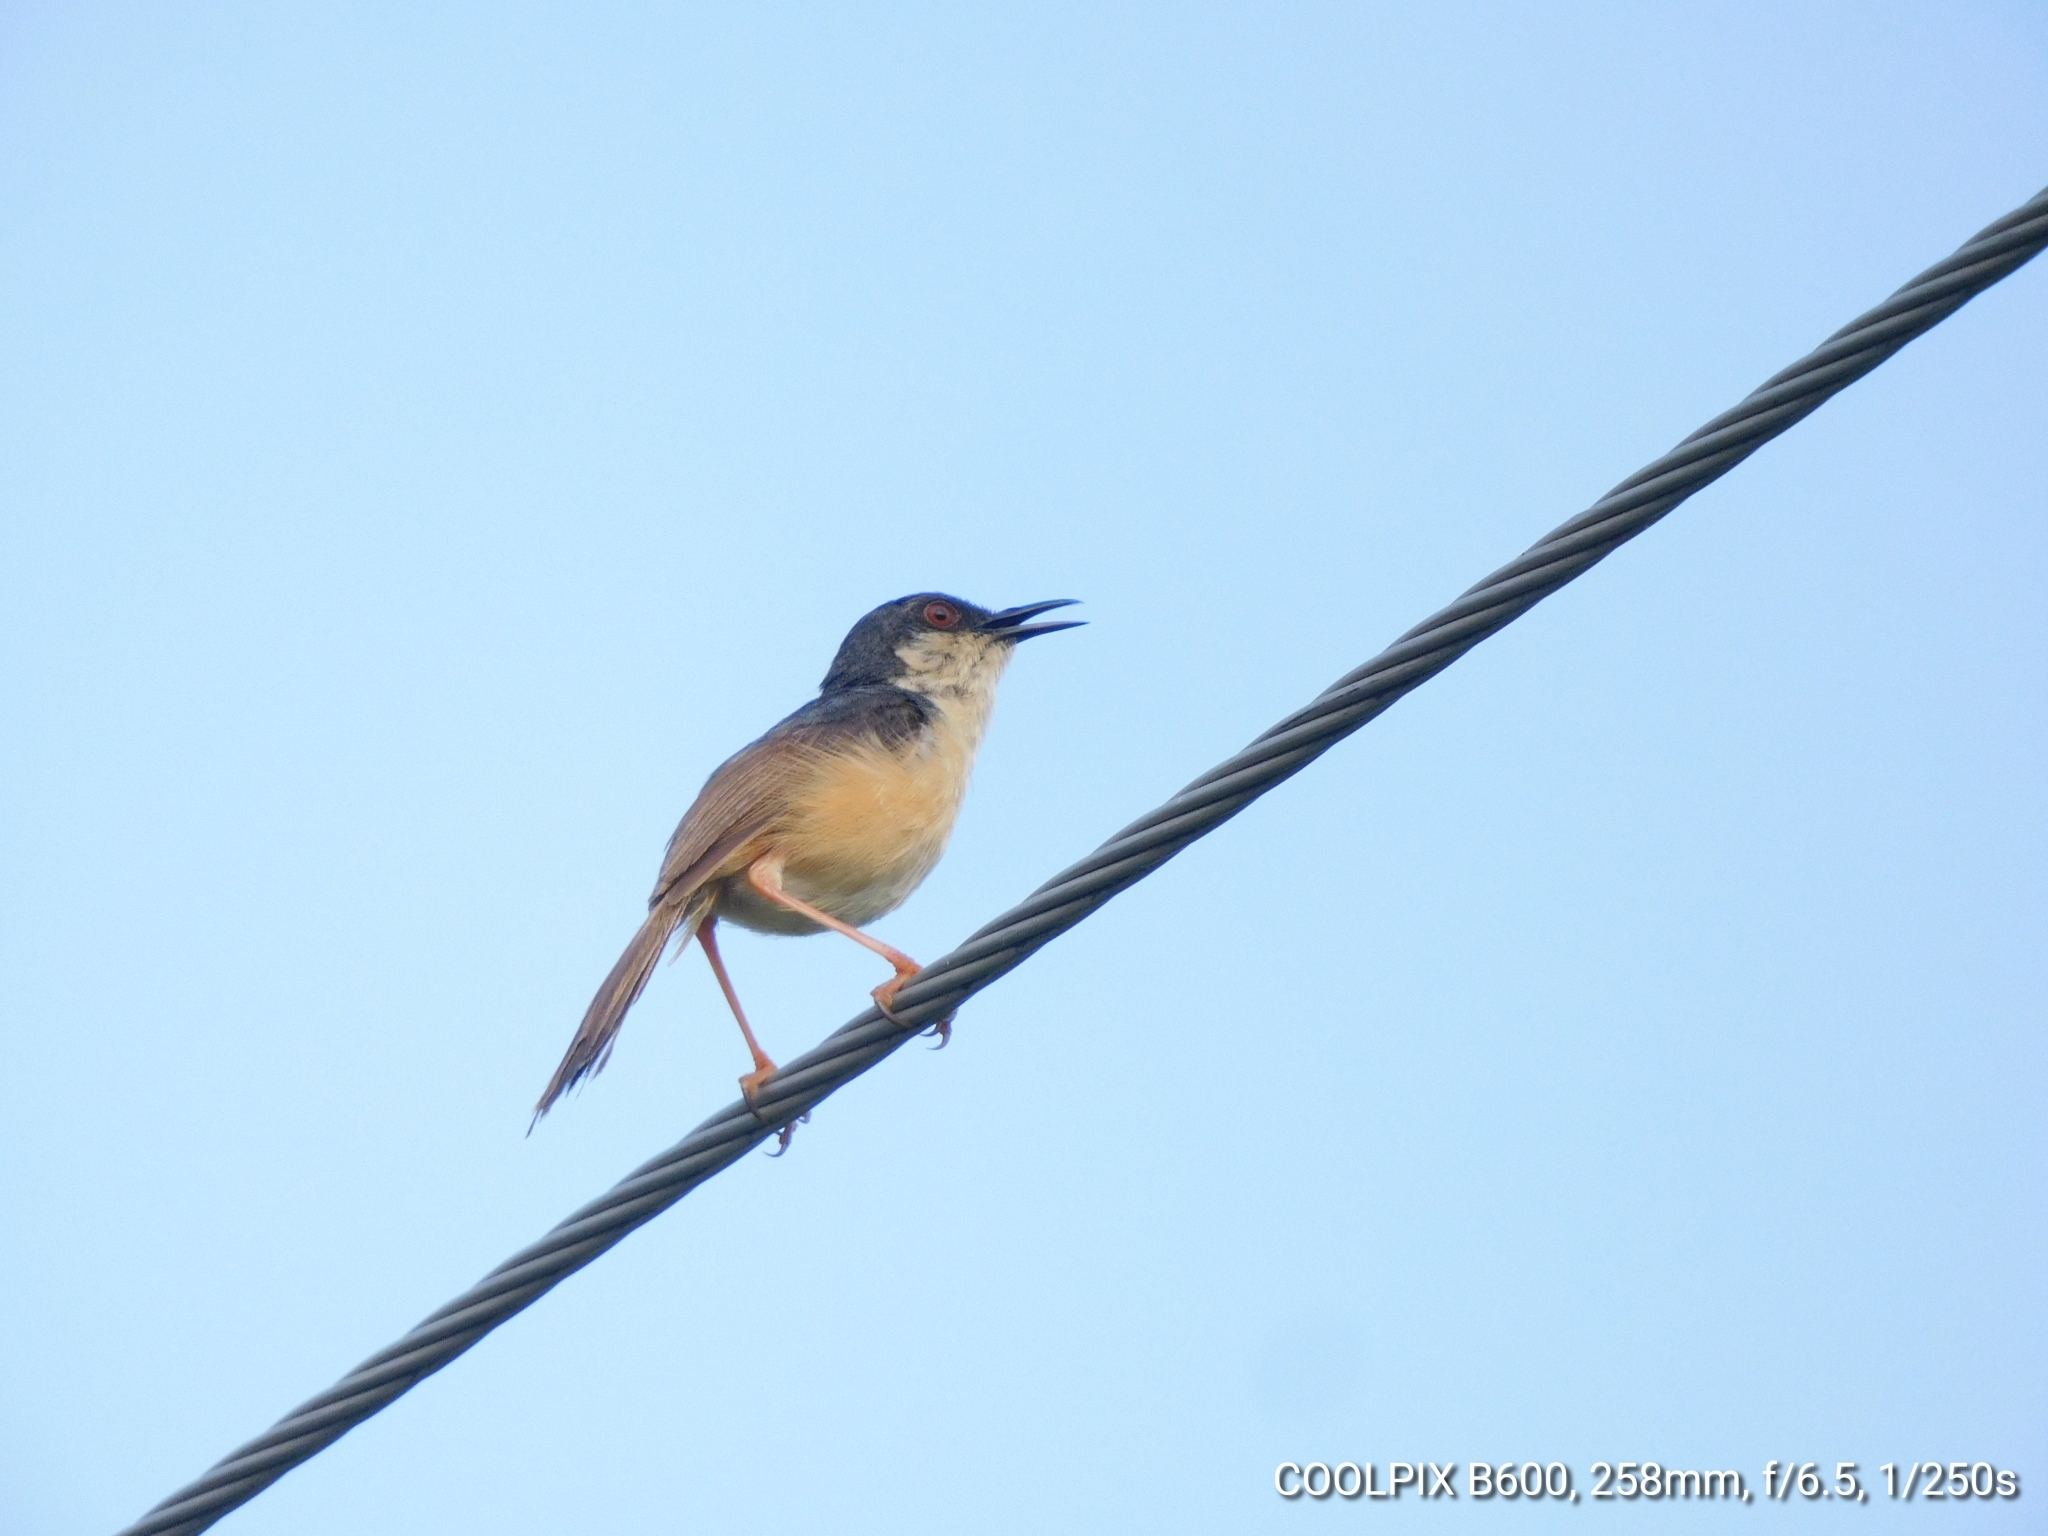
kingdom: Animalia
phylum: Chordata
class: Aves
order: Passeriformes
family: Cisticolidae
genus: Prinia
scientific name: Prinia socialis
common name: Ashy prinia
